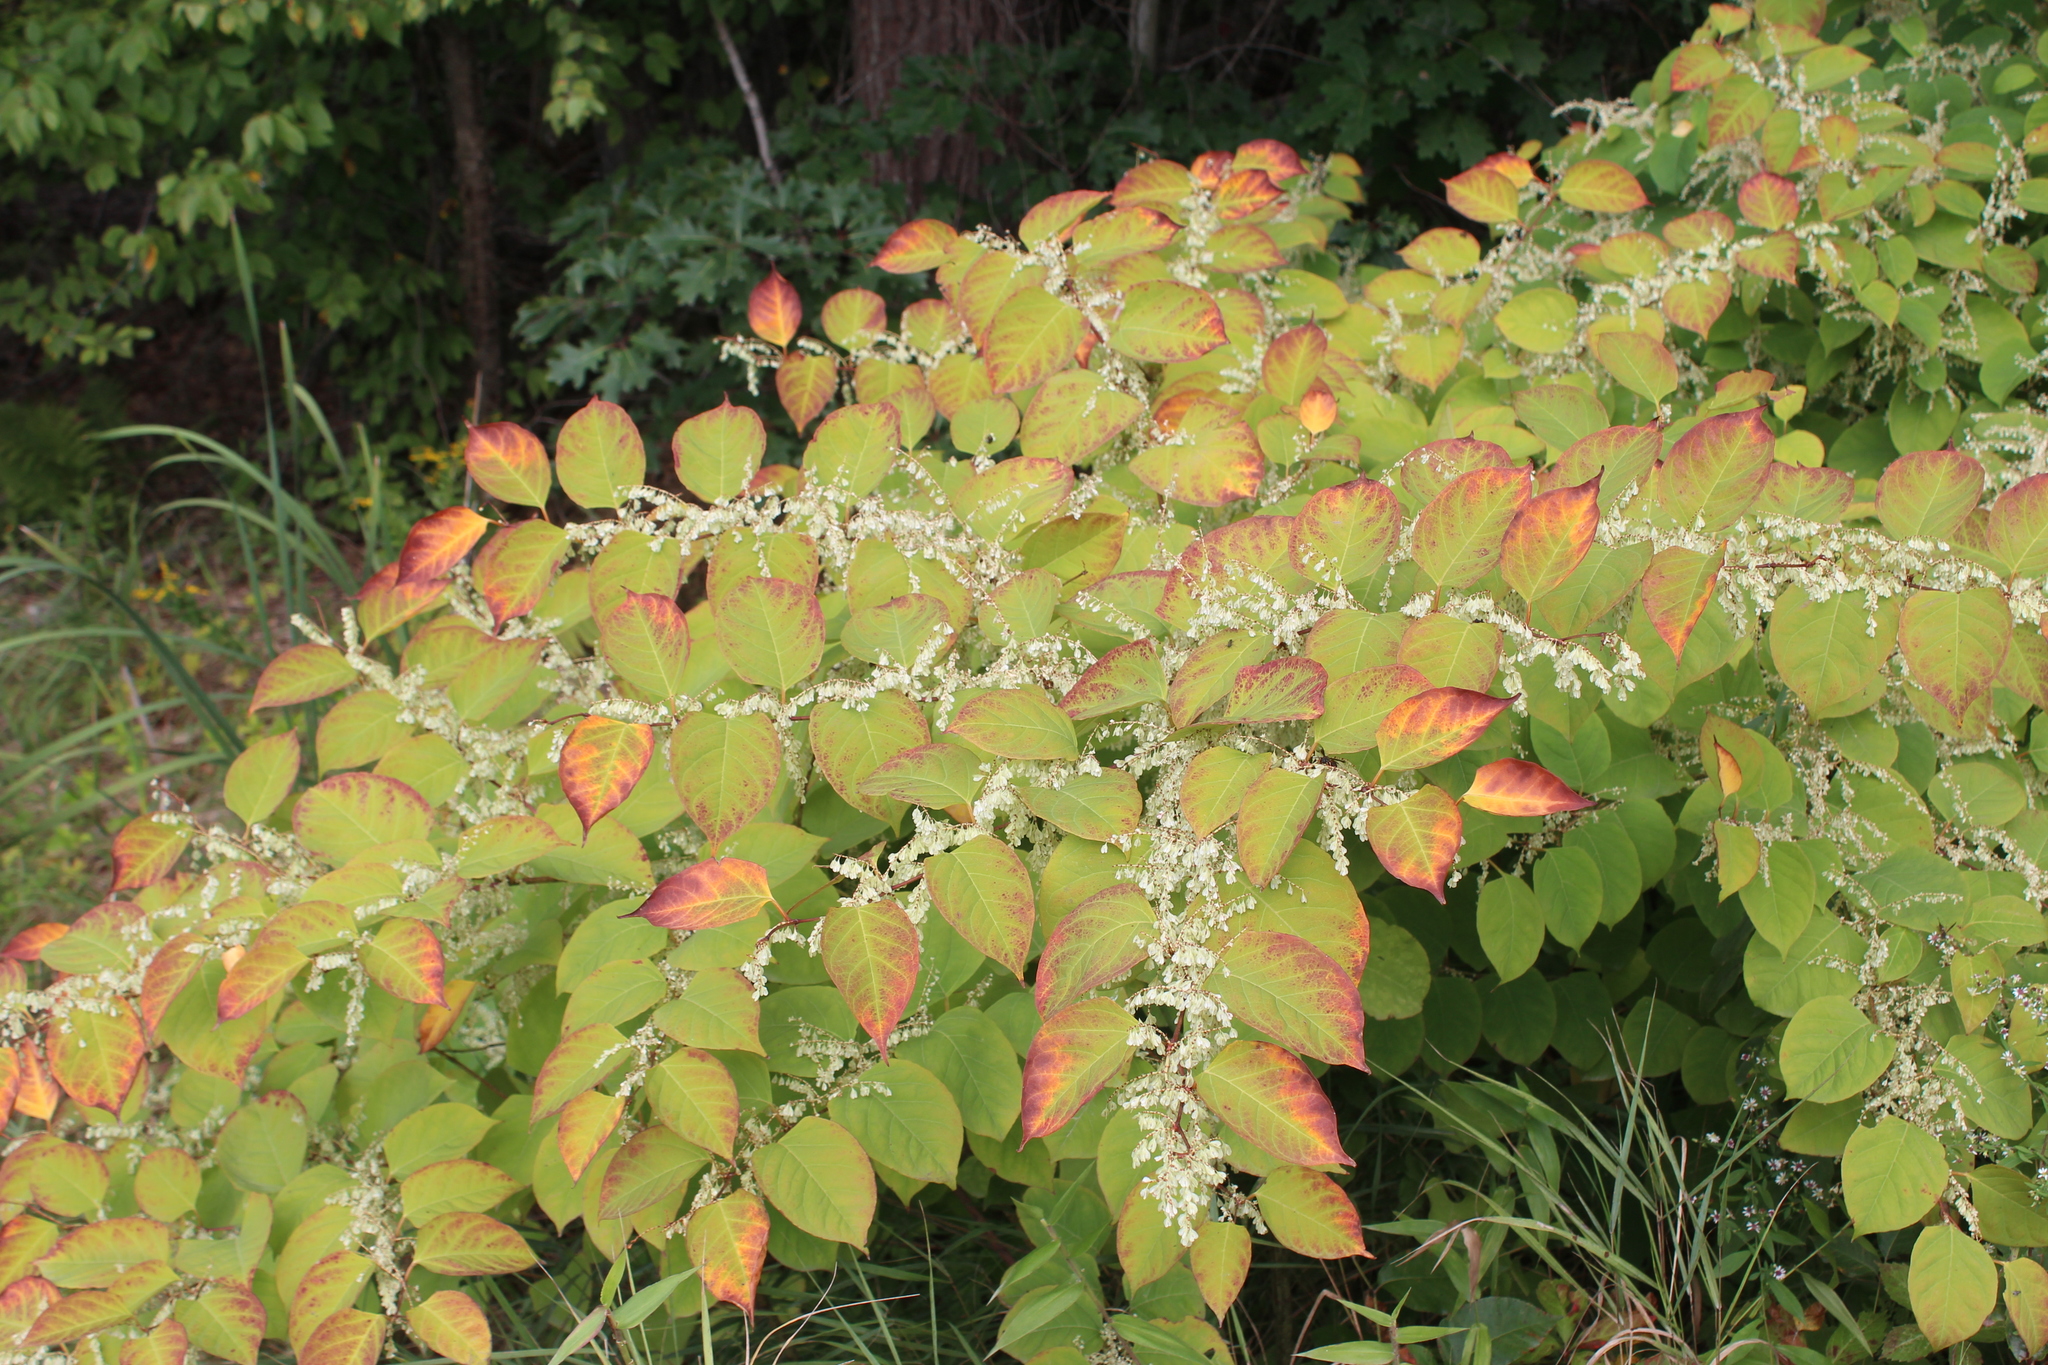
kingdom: Plantae
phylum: Tracheophyta
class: Magnoliopsida
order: Caryophyllales
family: Polygonaceae
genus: Reynoutria
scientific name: Reynoutria japonica
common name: Japanese knotweed
